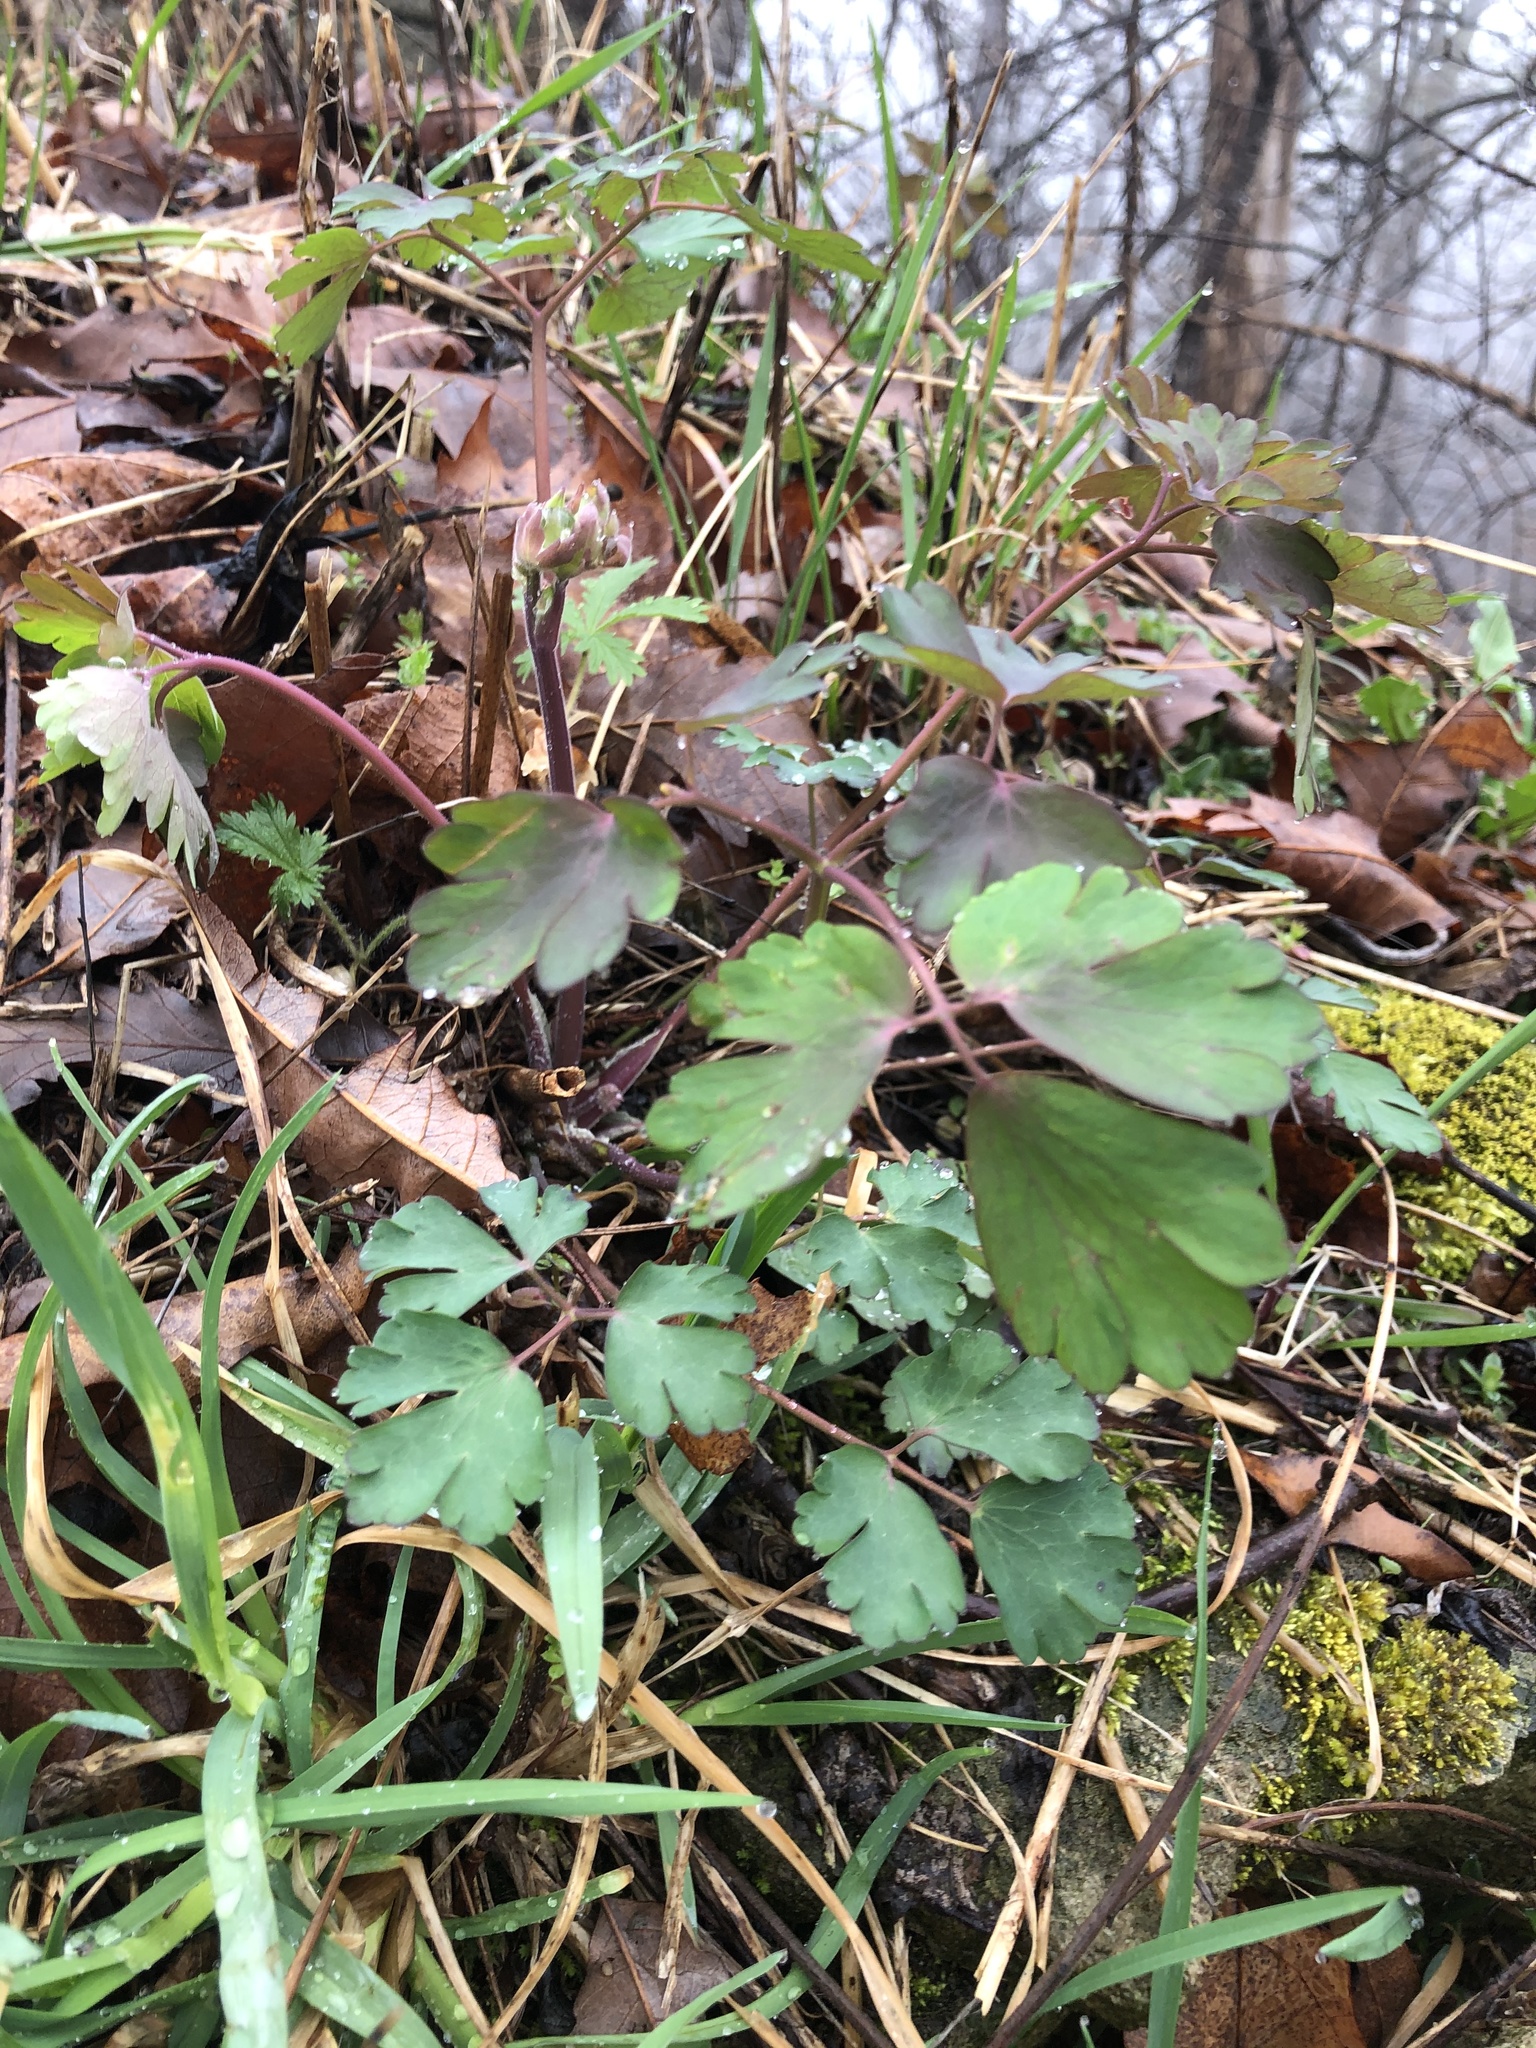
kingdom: Plantae
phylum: Tracheophyta
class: Magnoliopsida
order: Ranunculales
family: Ranunculaceae
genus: Aquilegia
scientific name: Aquilegia canadensis
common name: American columbine
